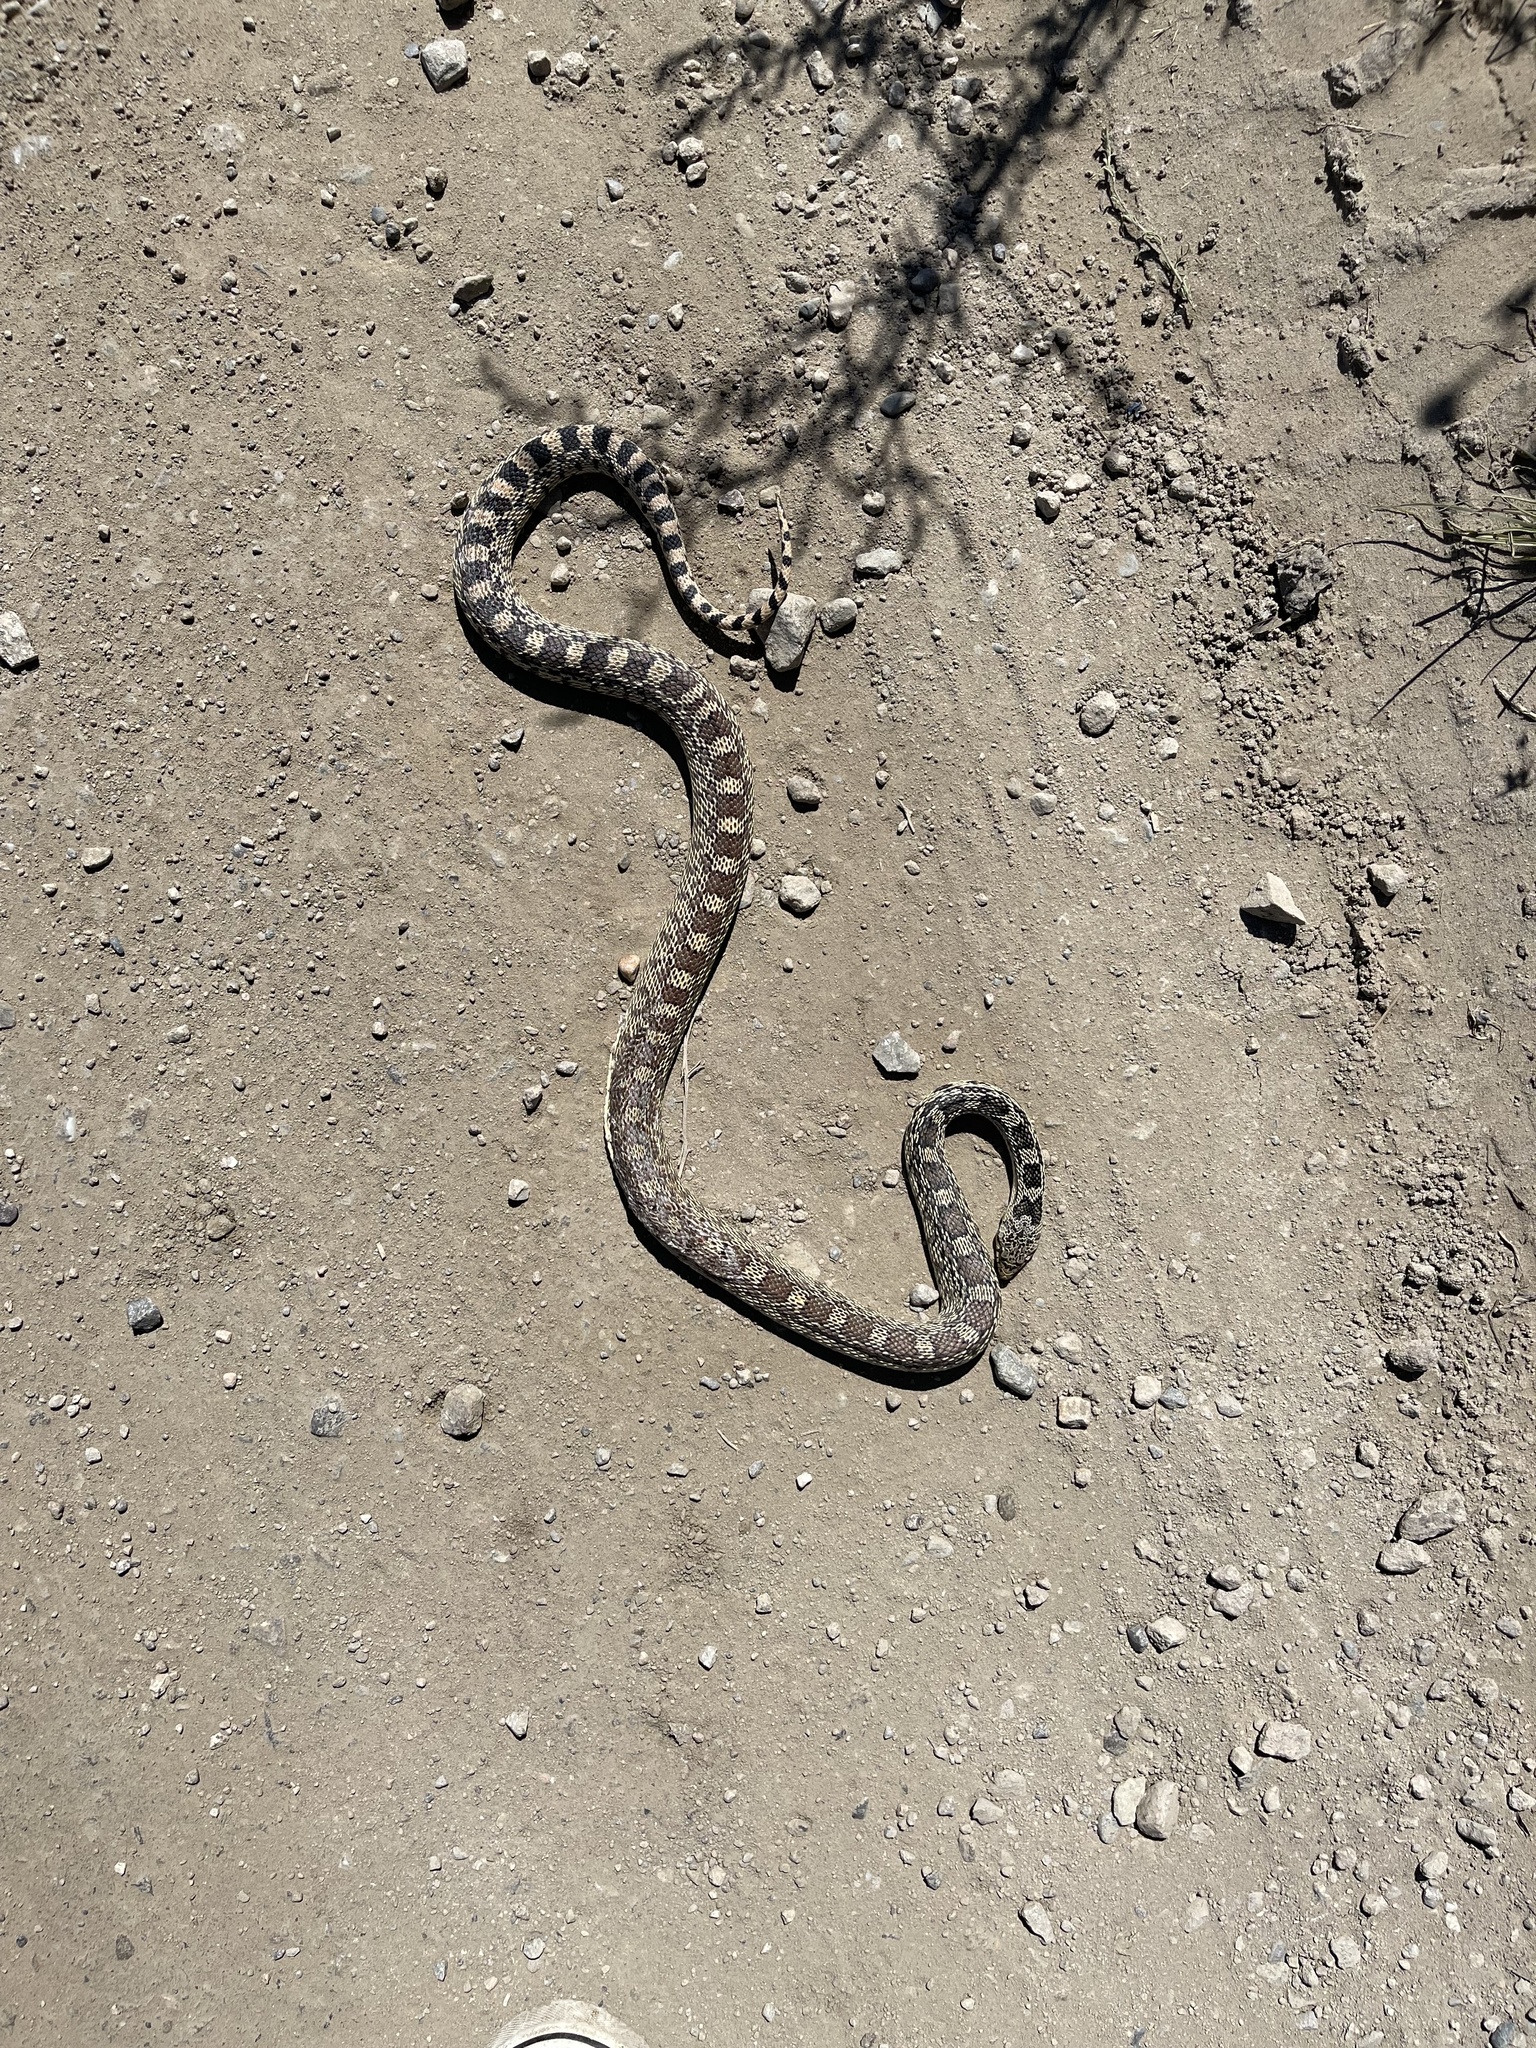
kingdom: Animalia
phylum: Chordata
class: Squamata
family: Colubridae
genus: Pituophis
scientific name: Pituophis catenifer
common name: Gopher snake
